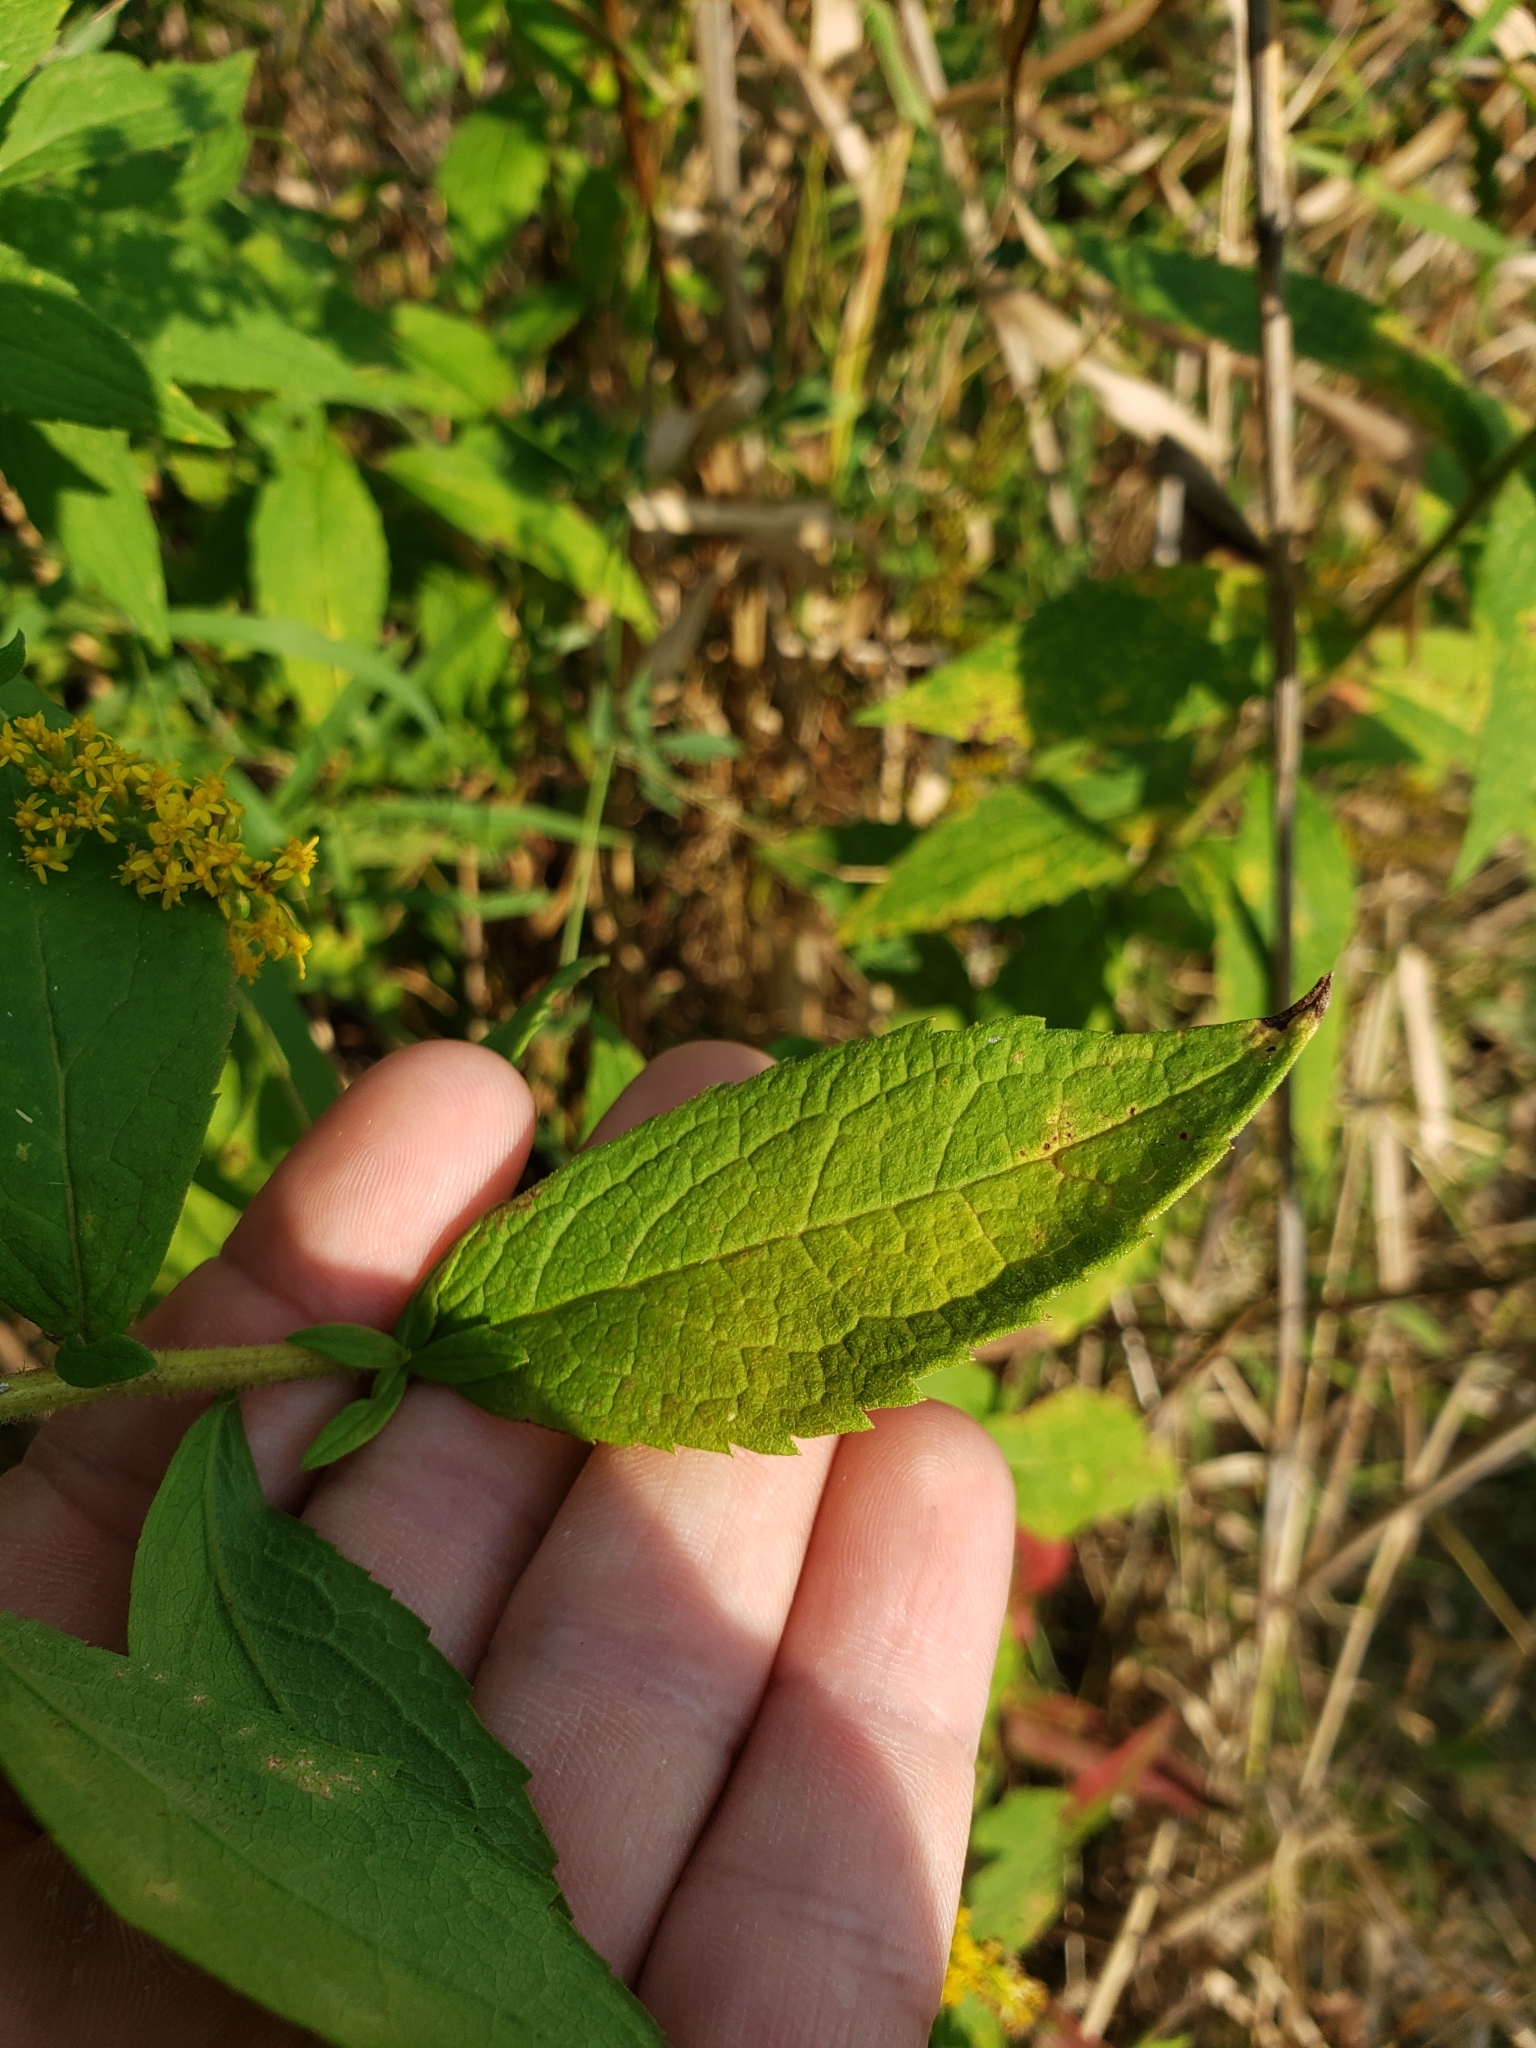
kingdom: Plantae
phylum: Tracheophyta
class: Magnoliopsida
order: Asterales
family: Asteraceae
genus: Solidago
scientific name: Solidago rugosa
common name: Rough-stemmed goldenrod
